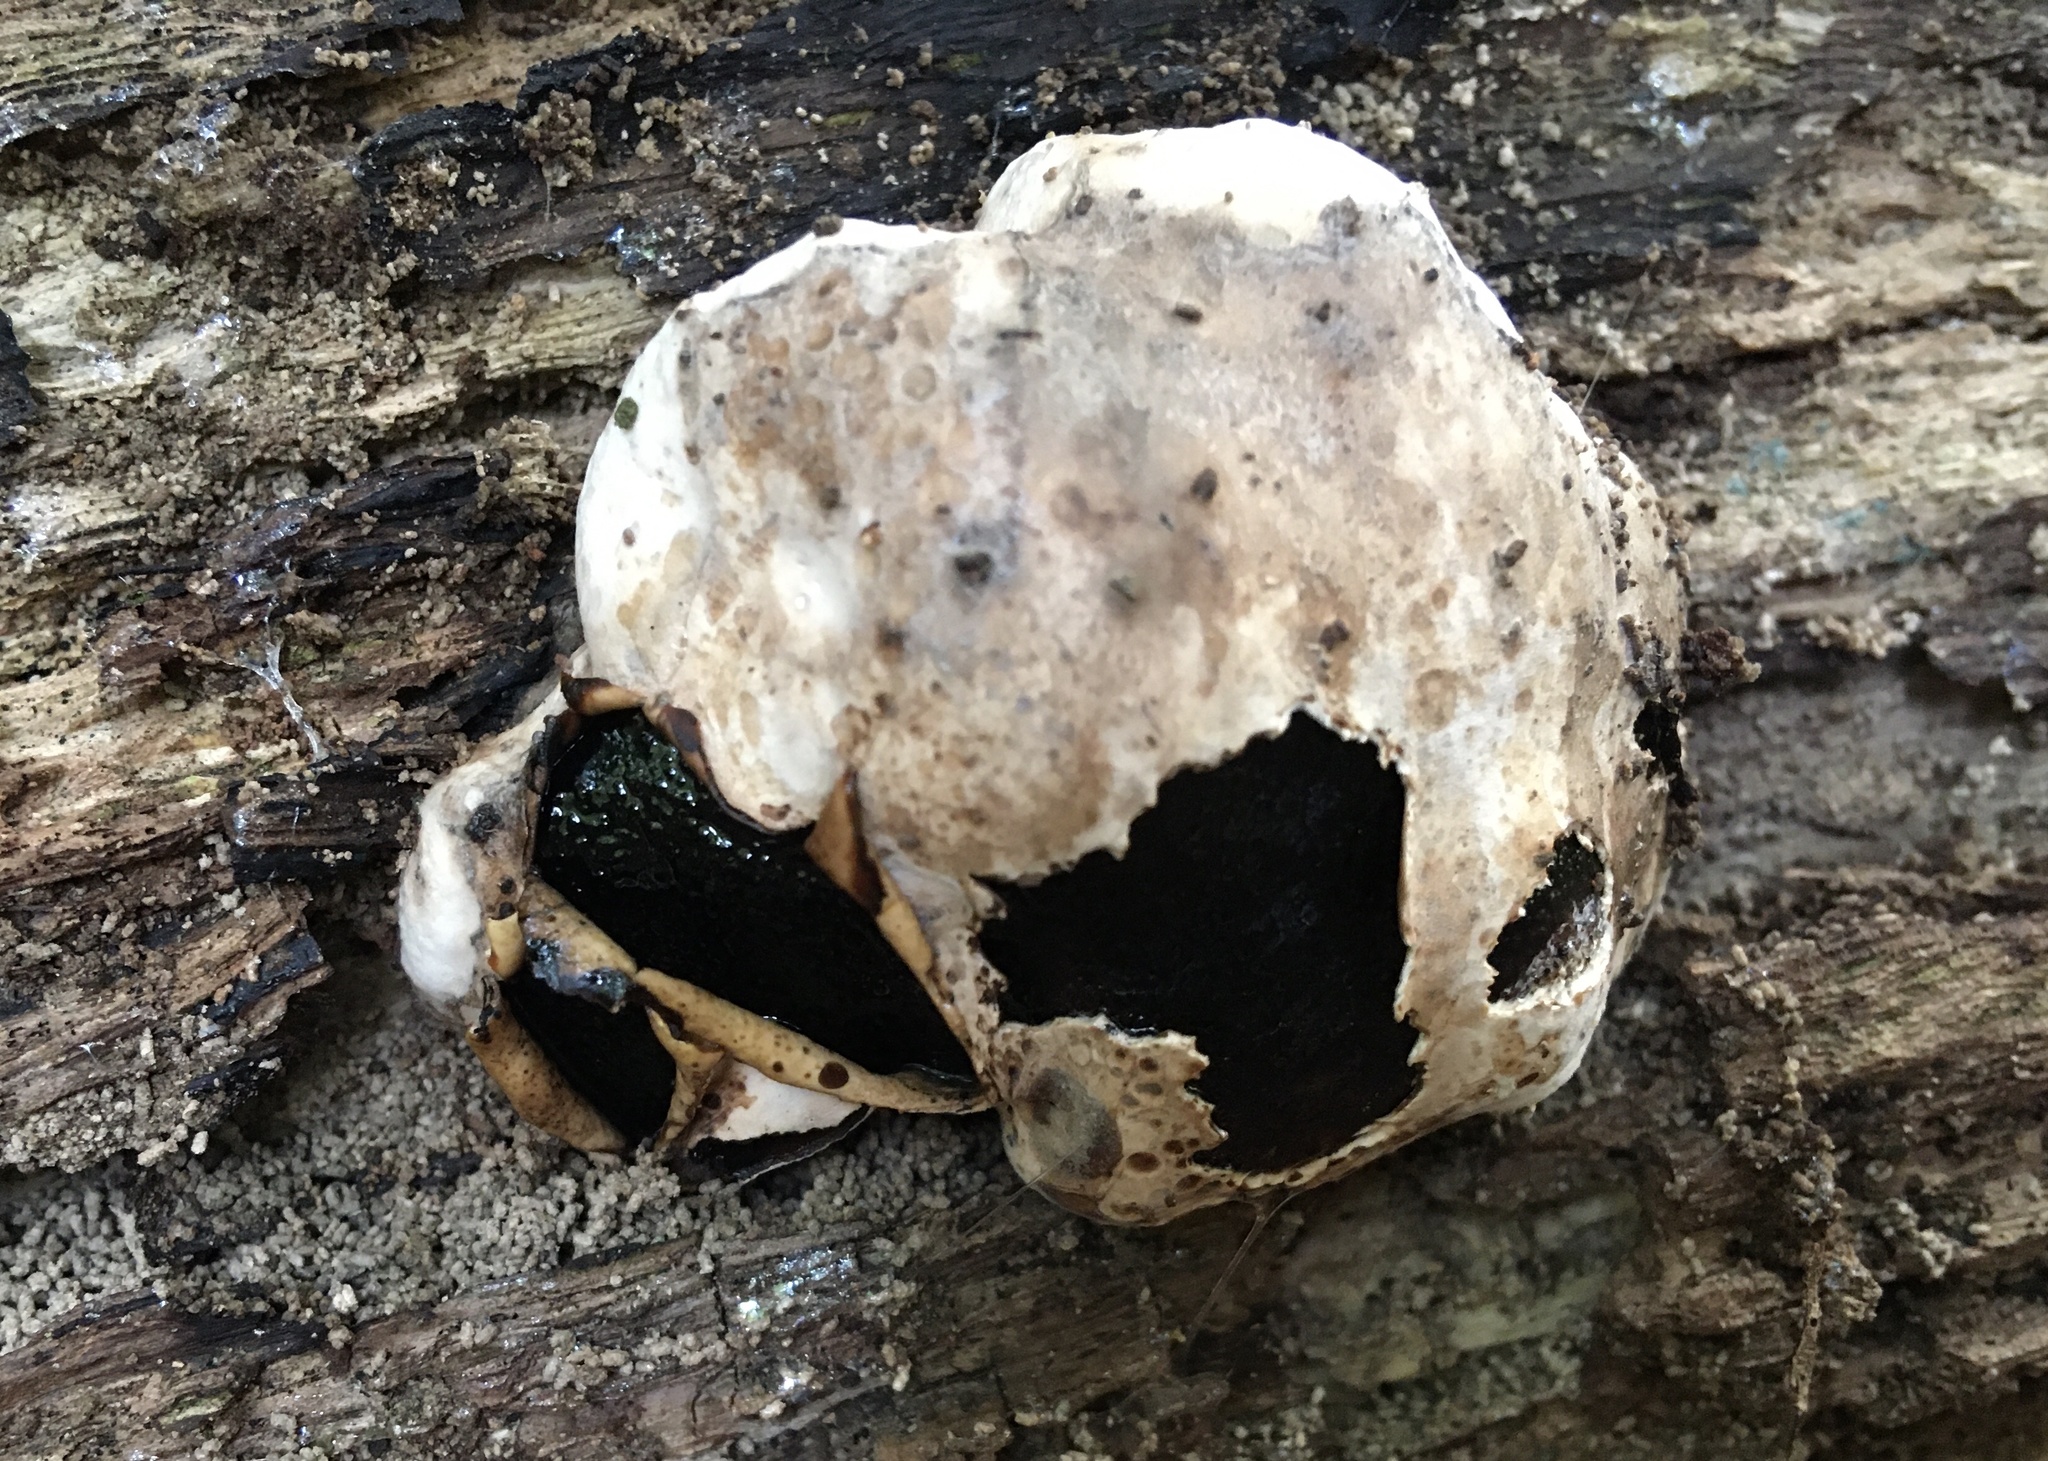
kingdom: Fungi
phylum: Ascomycota
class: Sordariomycetes
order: Boliniales
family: Boliniaceae
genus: Camarops
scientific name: Camarops petersii
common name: Dog's nose fungus
